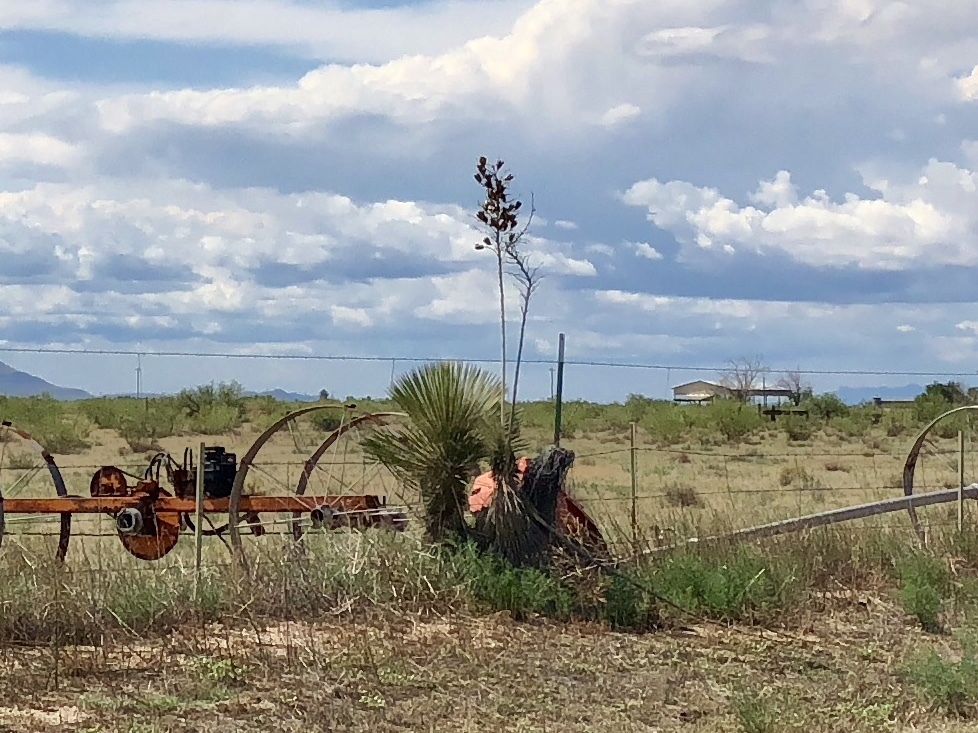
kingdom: Plantae
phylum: Tracheophyta
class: Liliopsida
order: Asparagales
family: Asparagaceae
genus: Yucca
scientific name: Yucca elata
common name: Palmella
